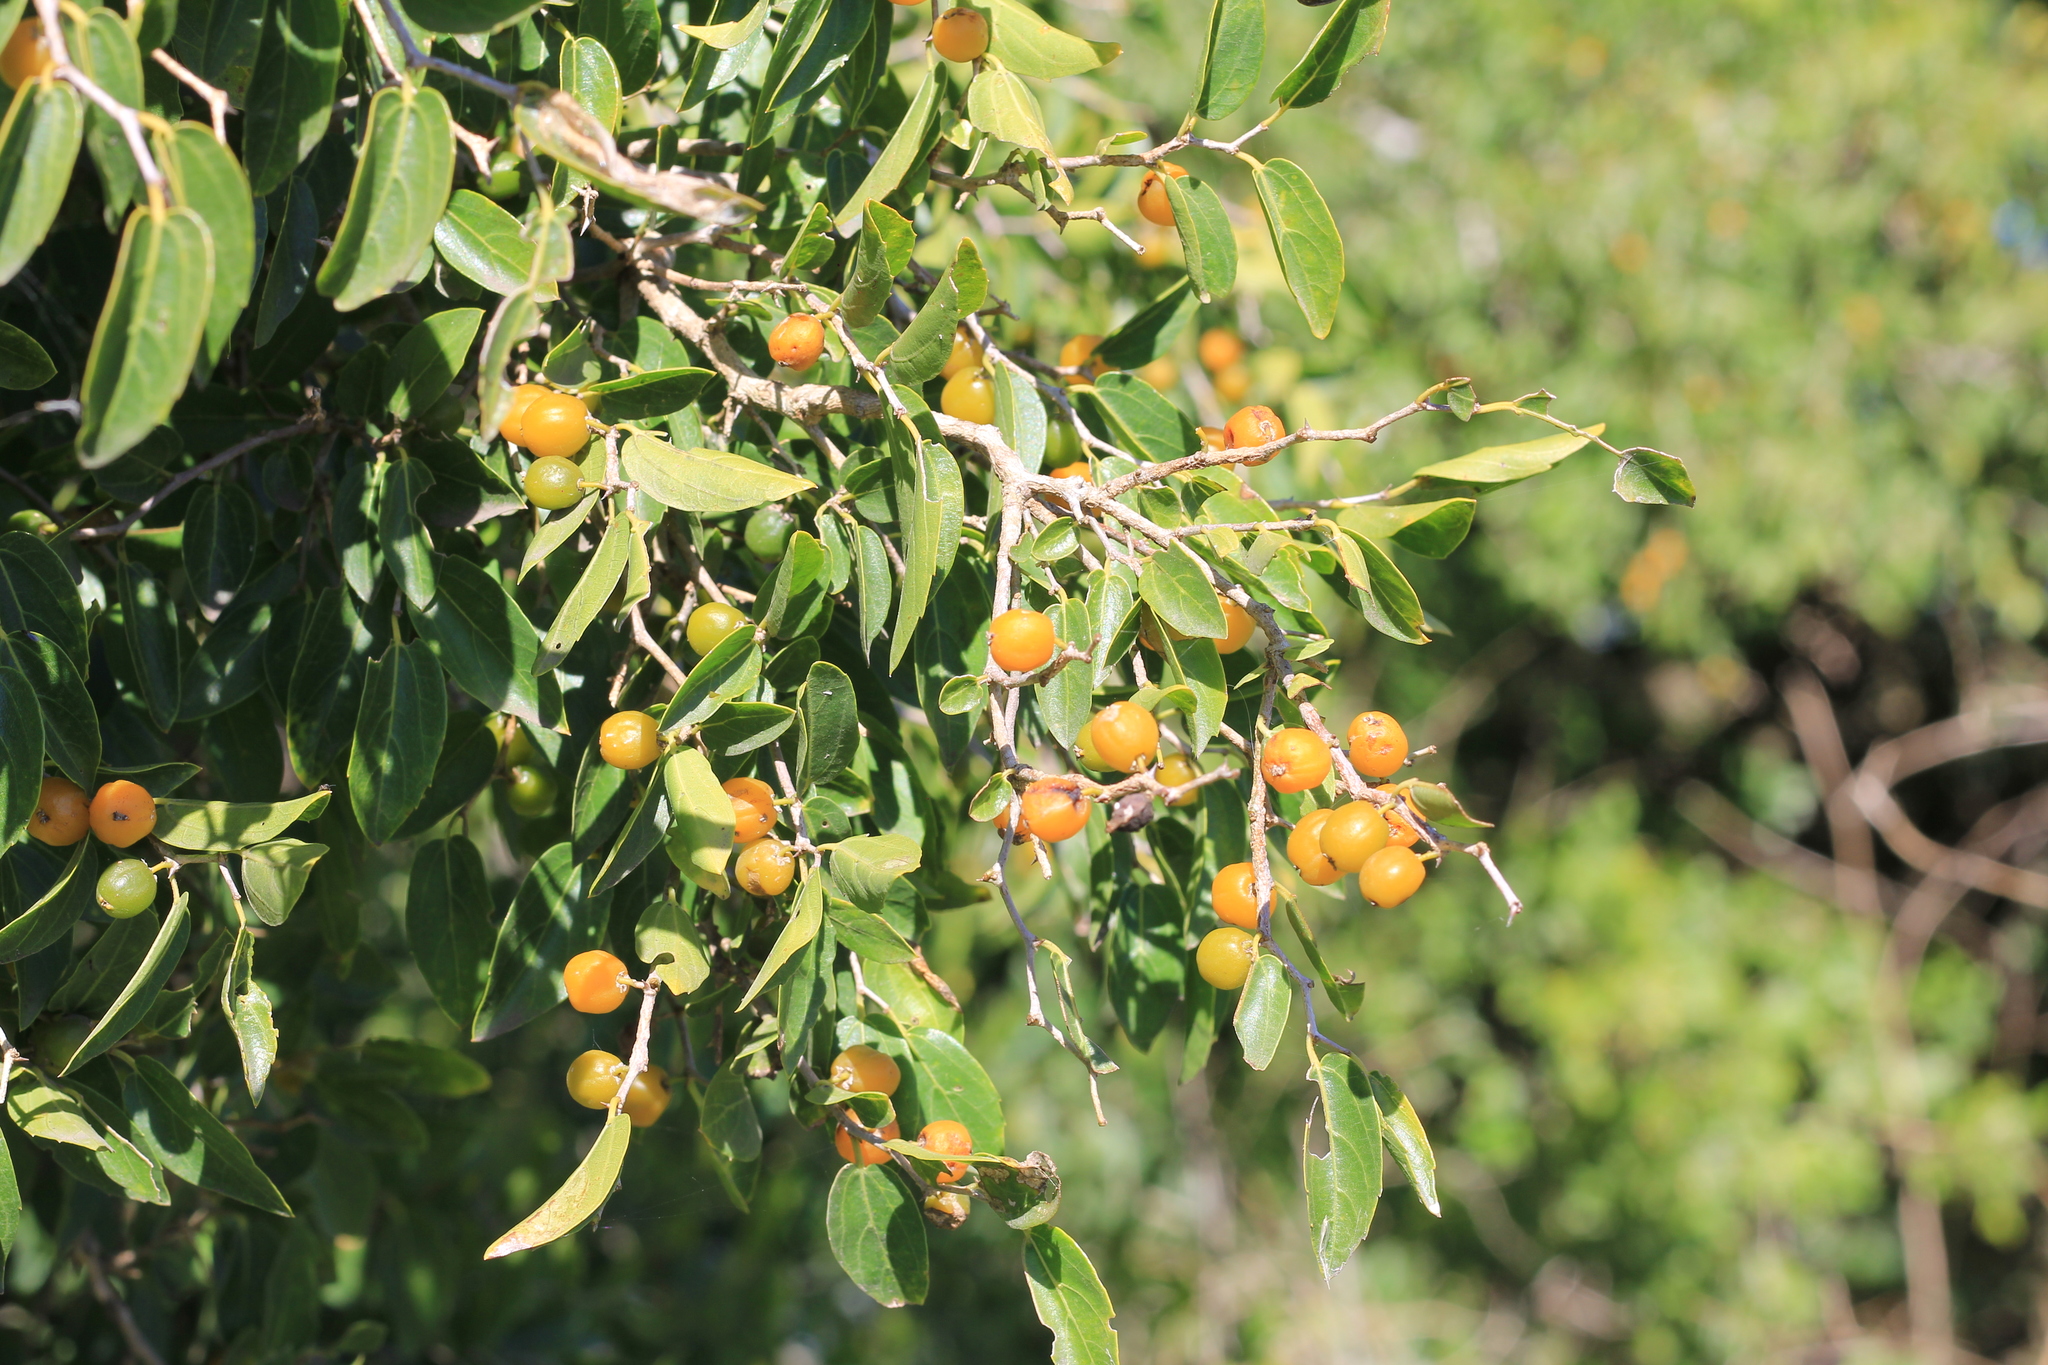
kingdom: Plantae
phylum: Tracheophyta
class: Magnoliopsida
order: Rosales
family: Cannabaceae
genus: Celtis
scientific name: Celtis tala
